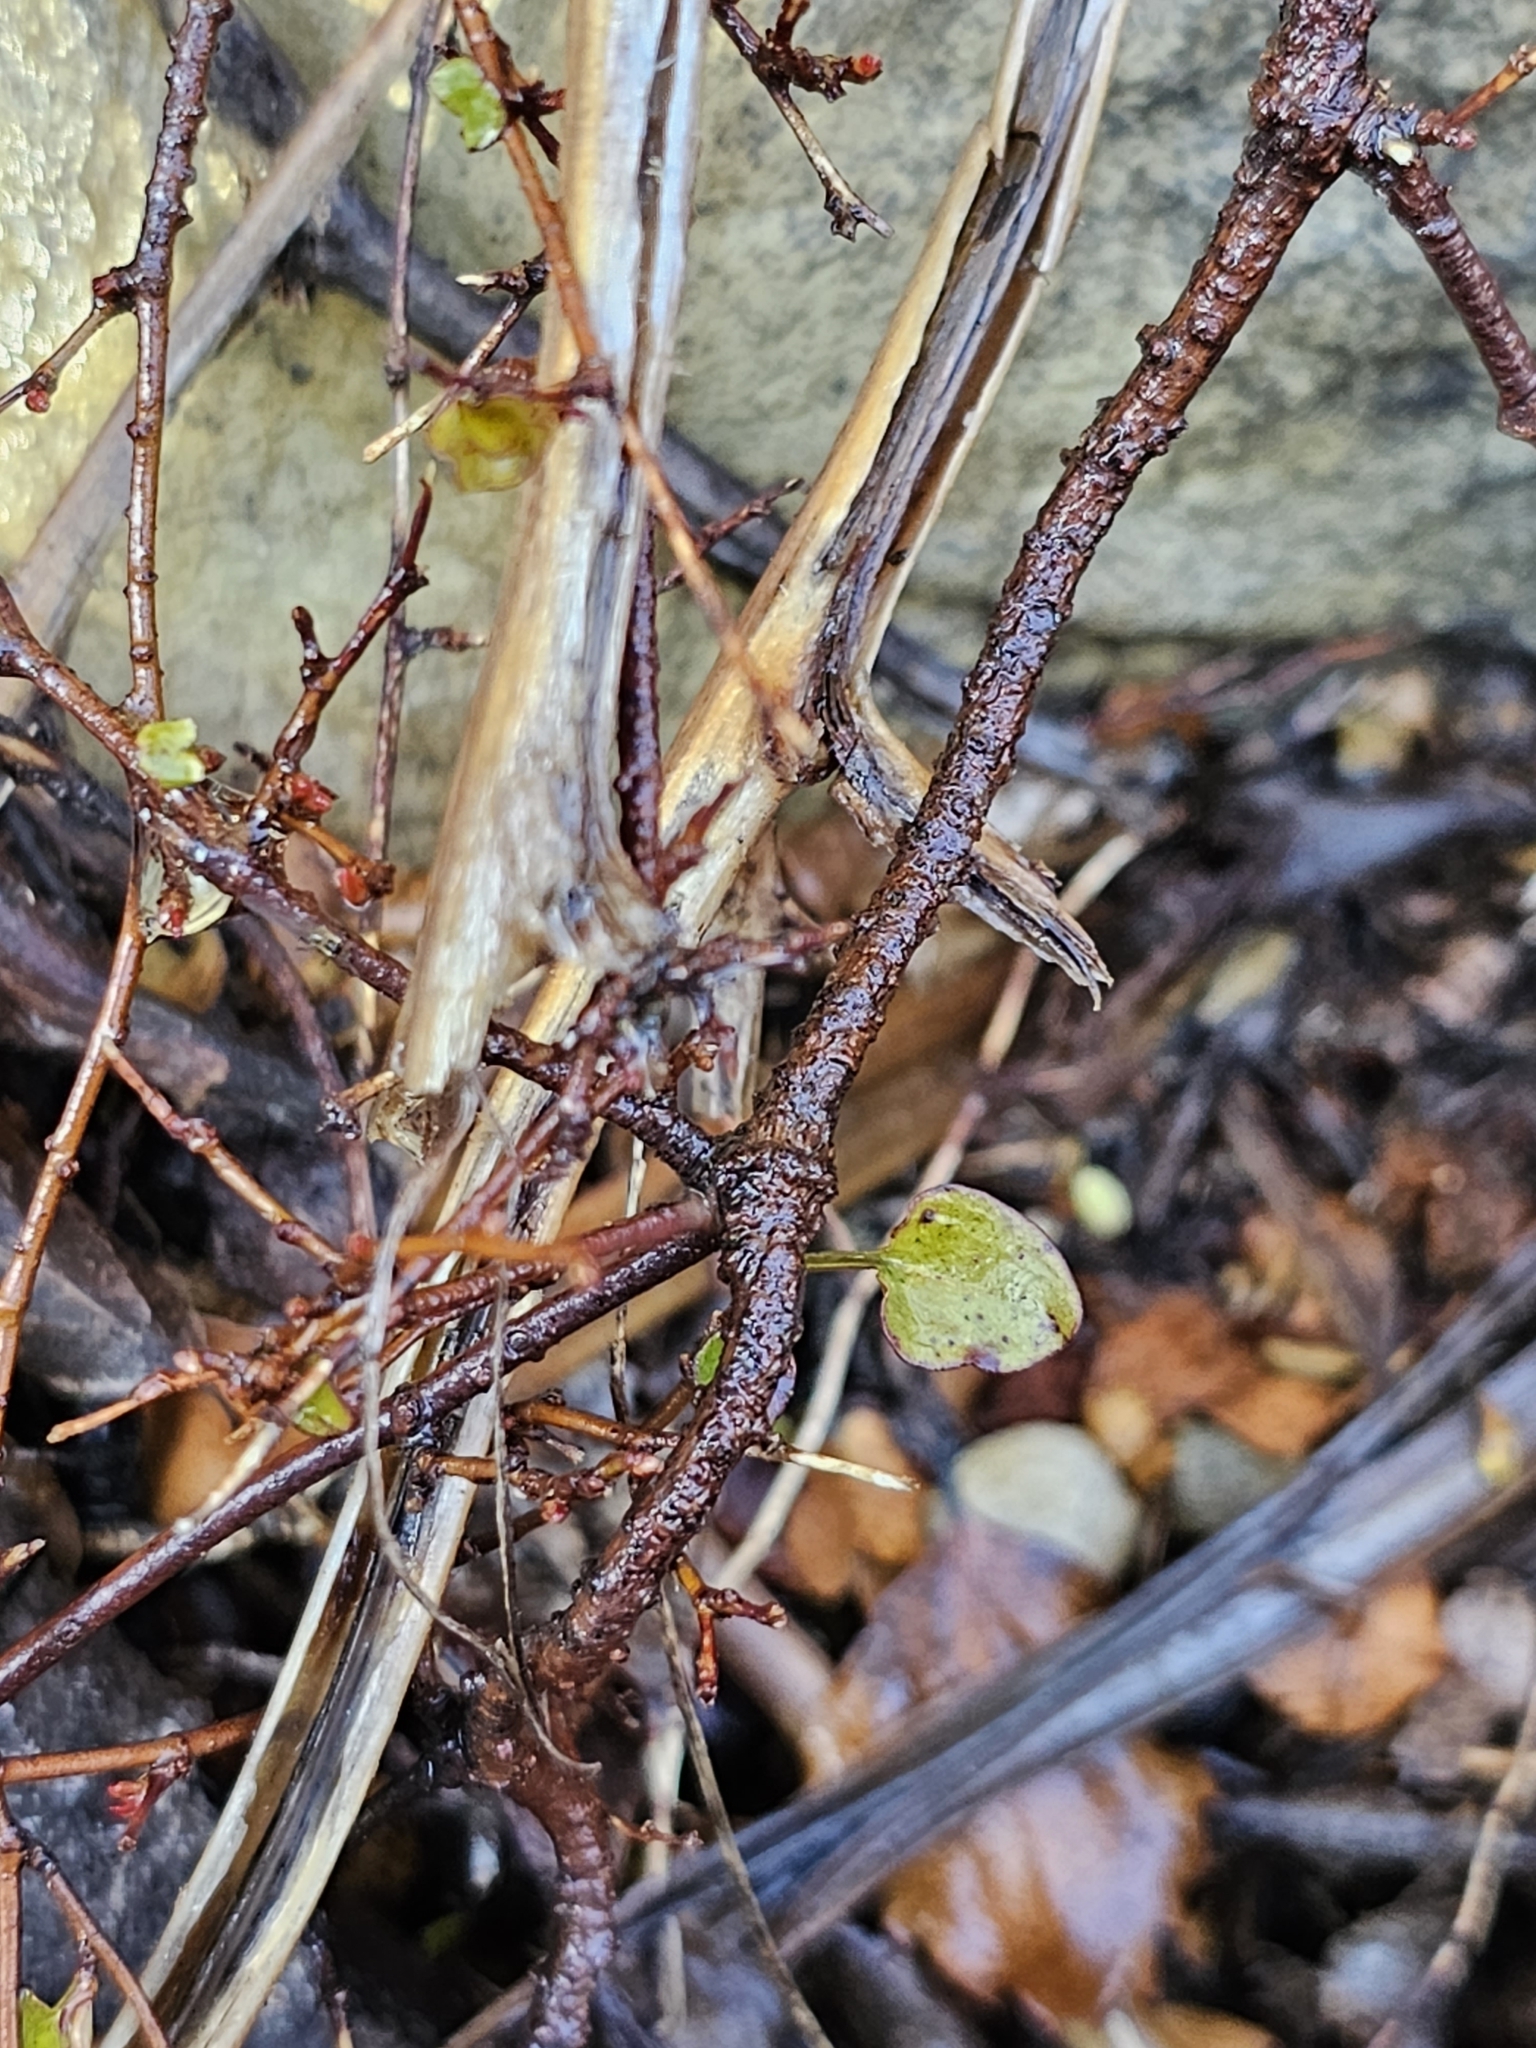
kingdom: Plantae
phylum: Tracheophyta
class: Magnoliopsida
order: Caryophyllales
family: Polygonaceae
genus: Muehlenbeckia
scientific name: Muehlenbeckia australis
